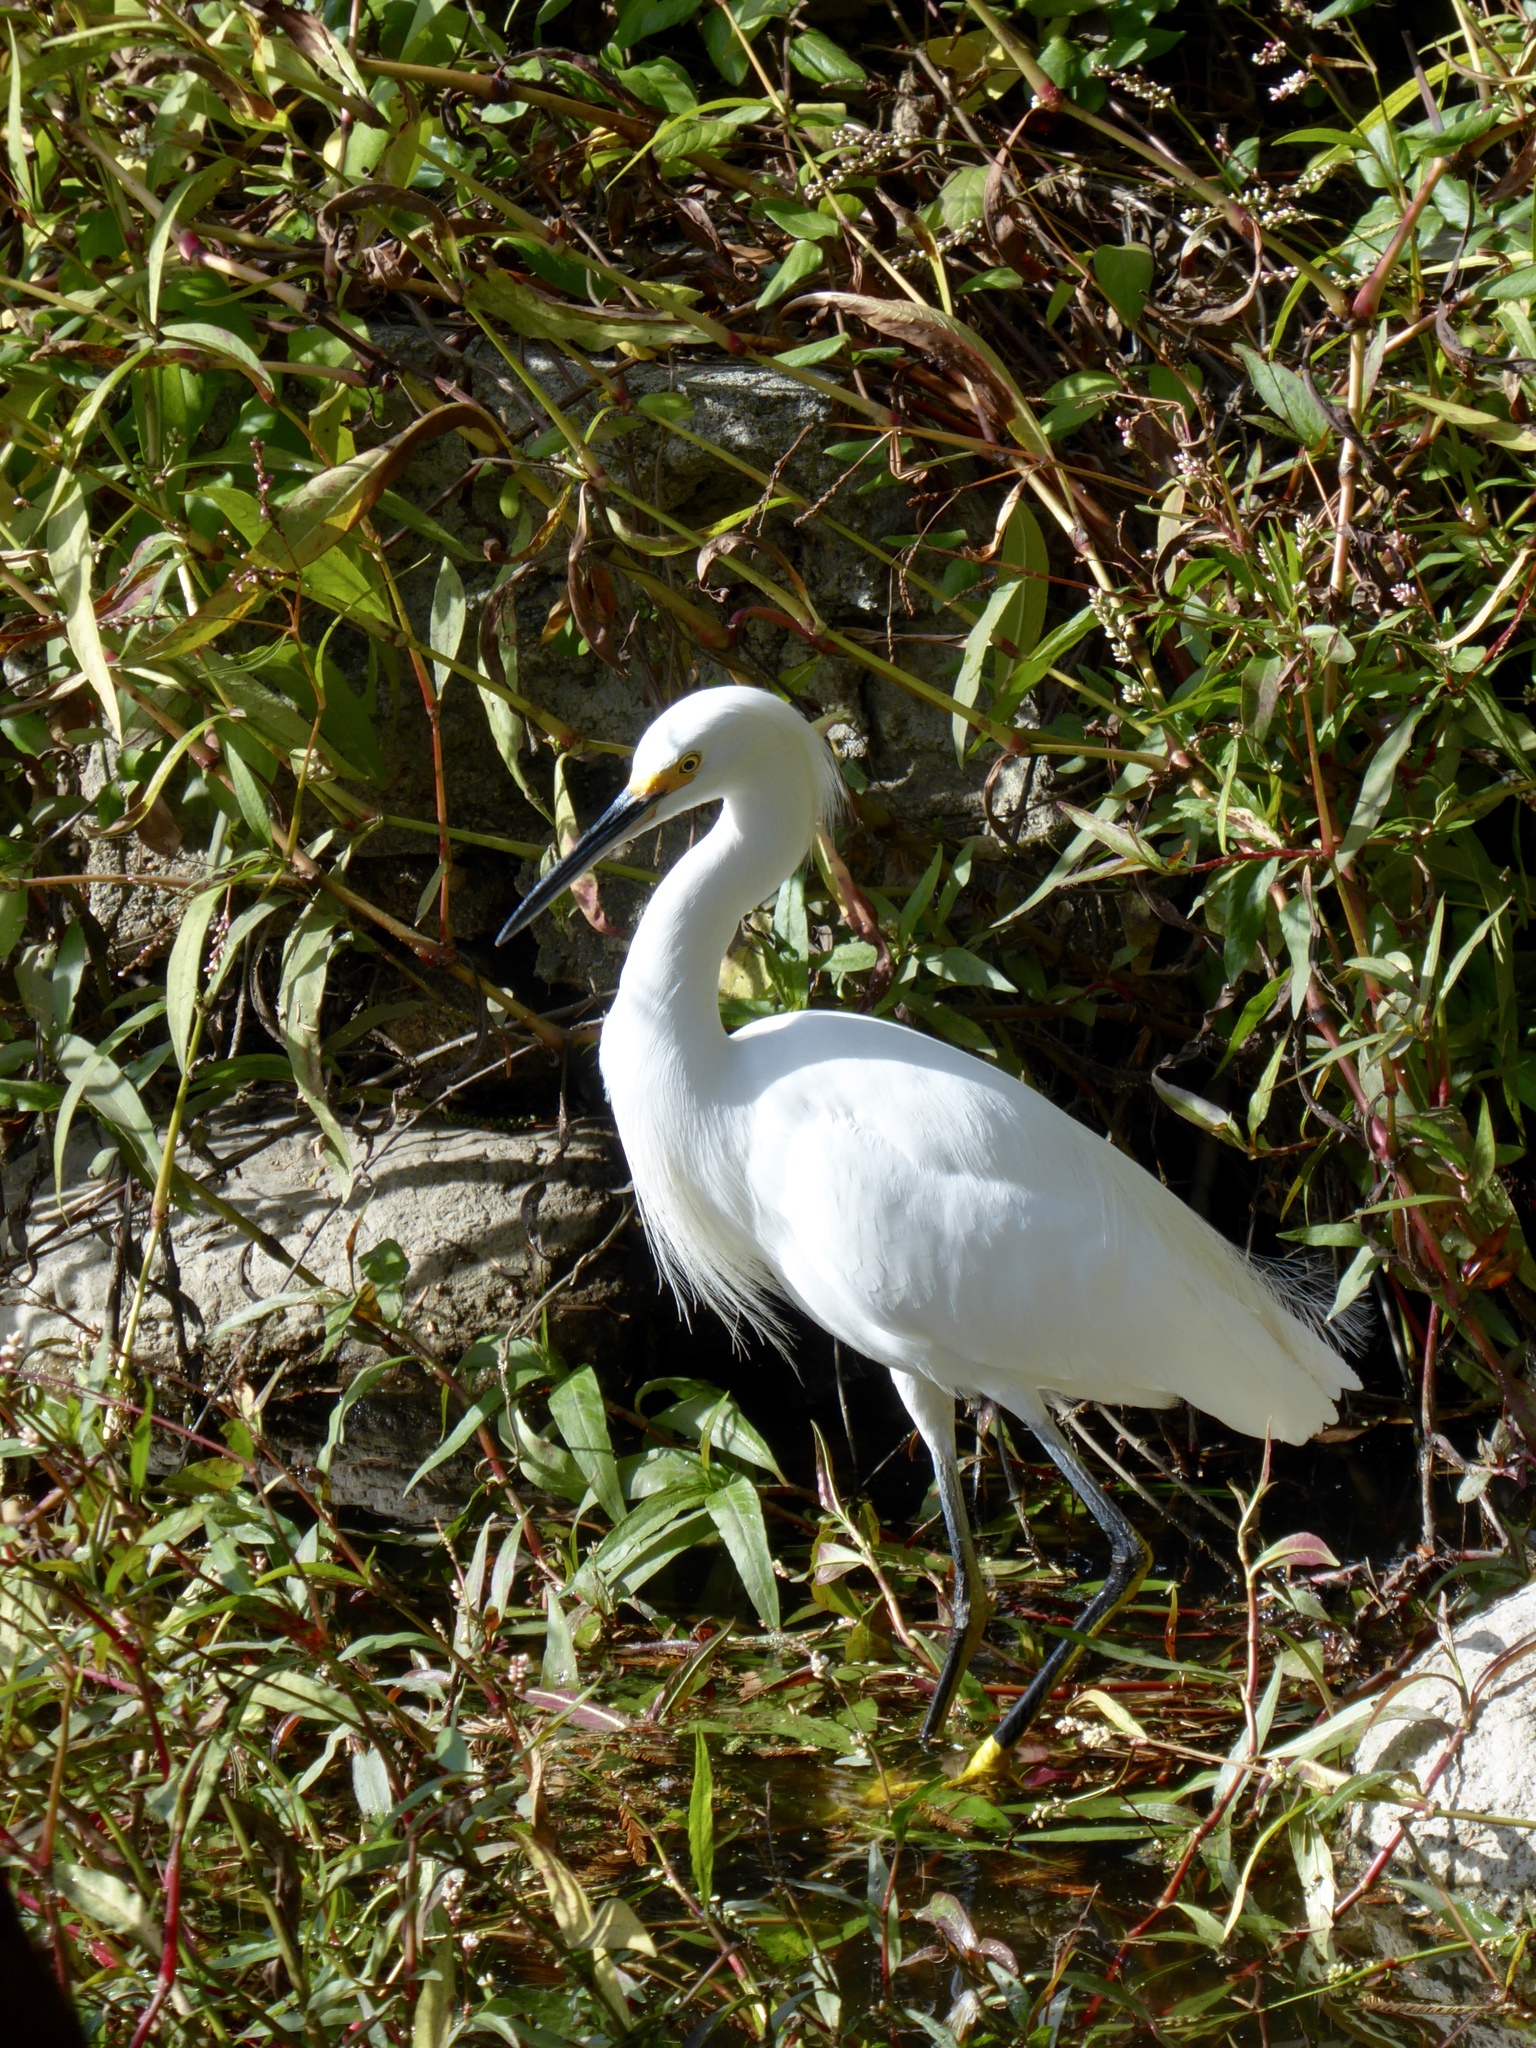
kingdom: Animalia
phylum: Chordata
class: Aves
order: Pelecaniformes
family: Ardeidae
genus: Egretta
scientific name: Egretta thula
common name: Snowy egret
